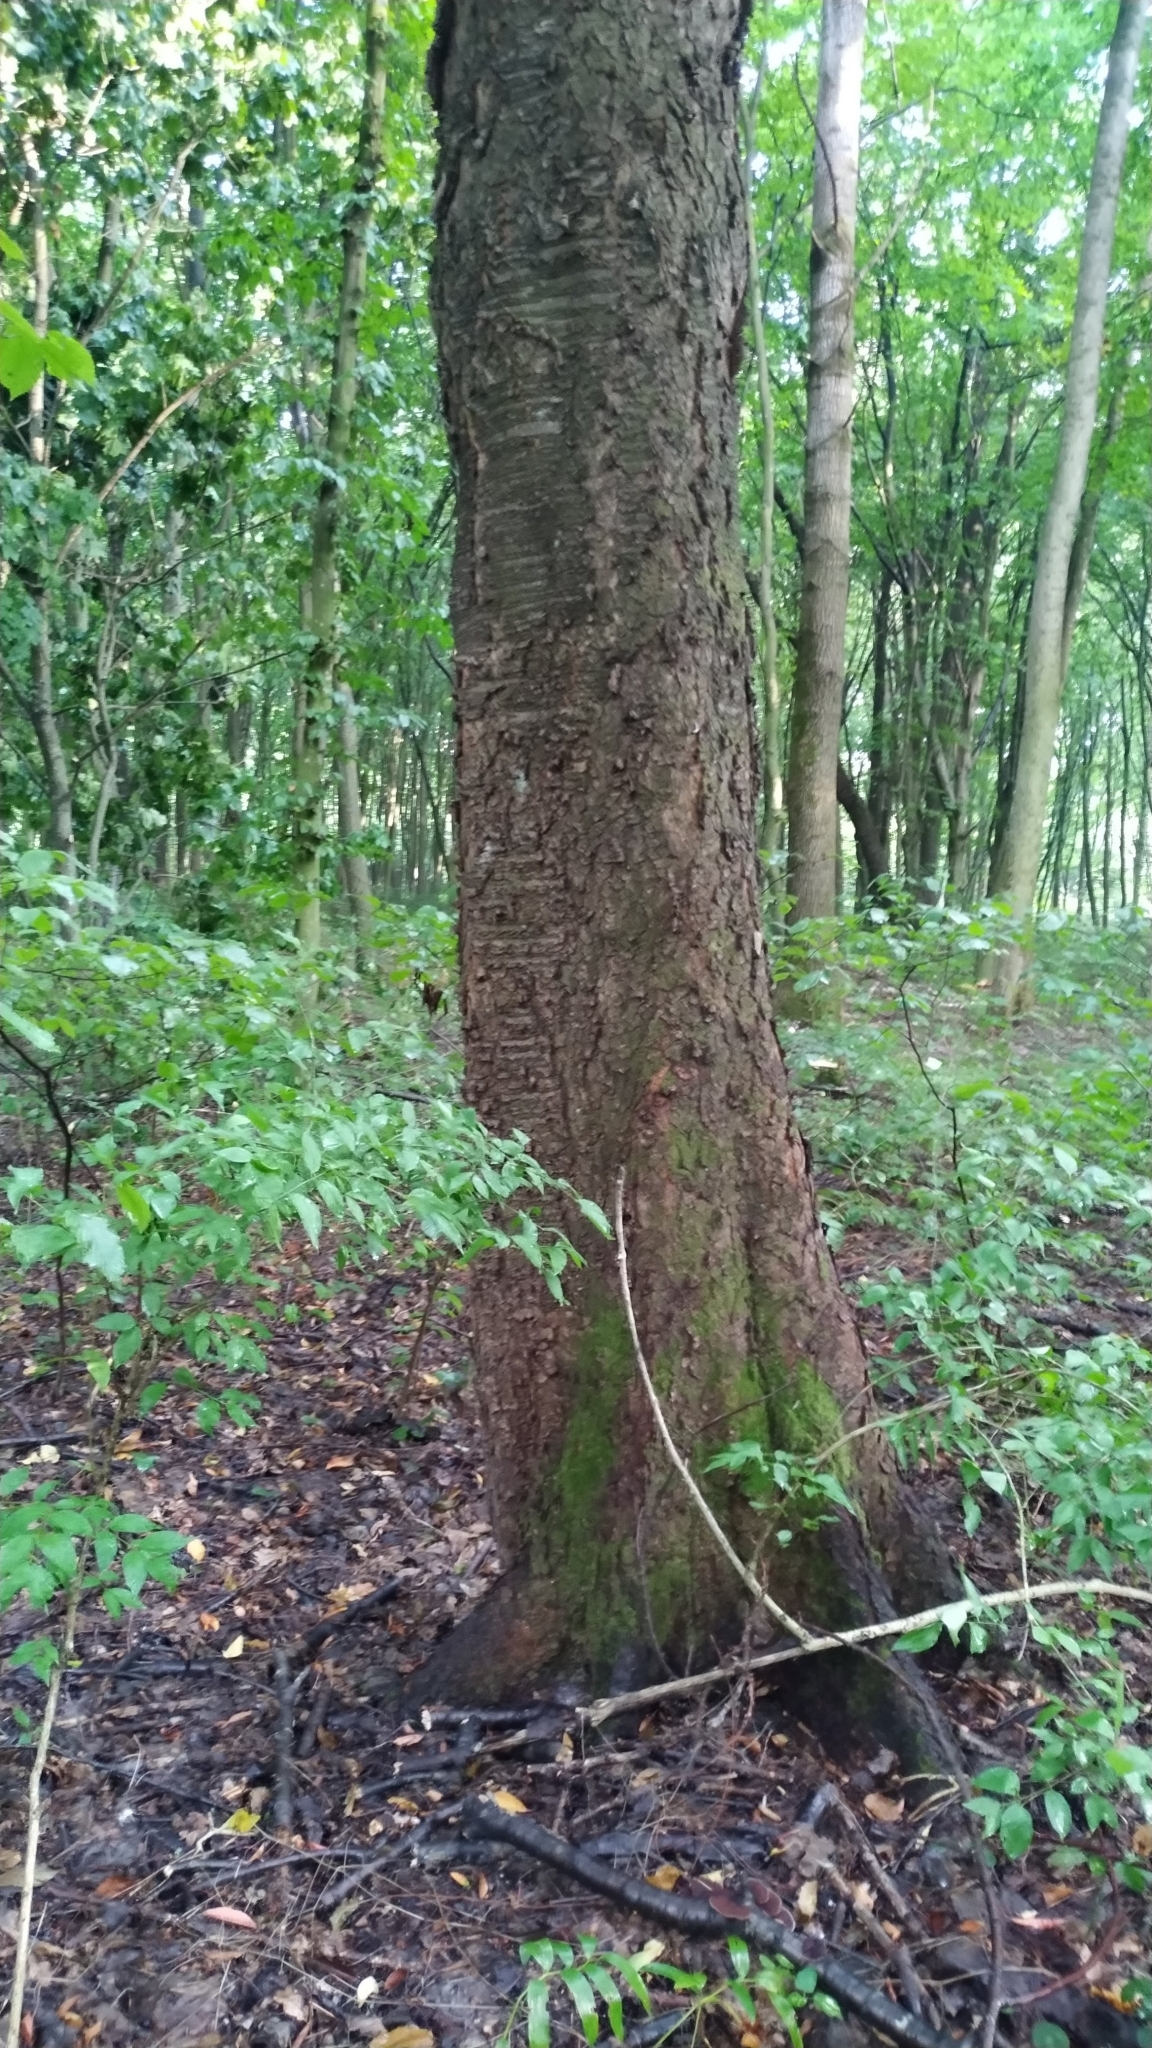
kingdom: Plantae
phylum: Tracheophyta
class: Magnoliopsida
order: Rosales
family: Rosaceae
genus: Prunus
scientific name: Prunus avium
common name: Sweet cherry
